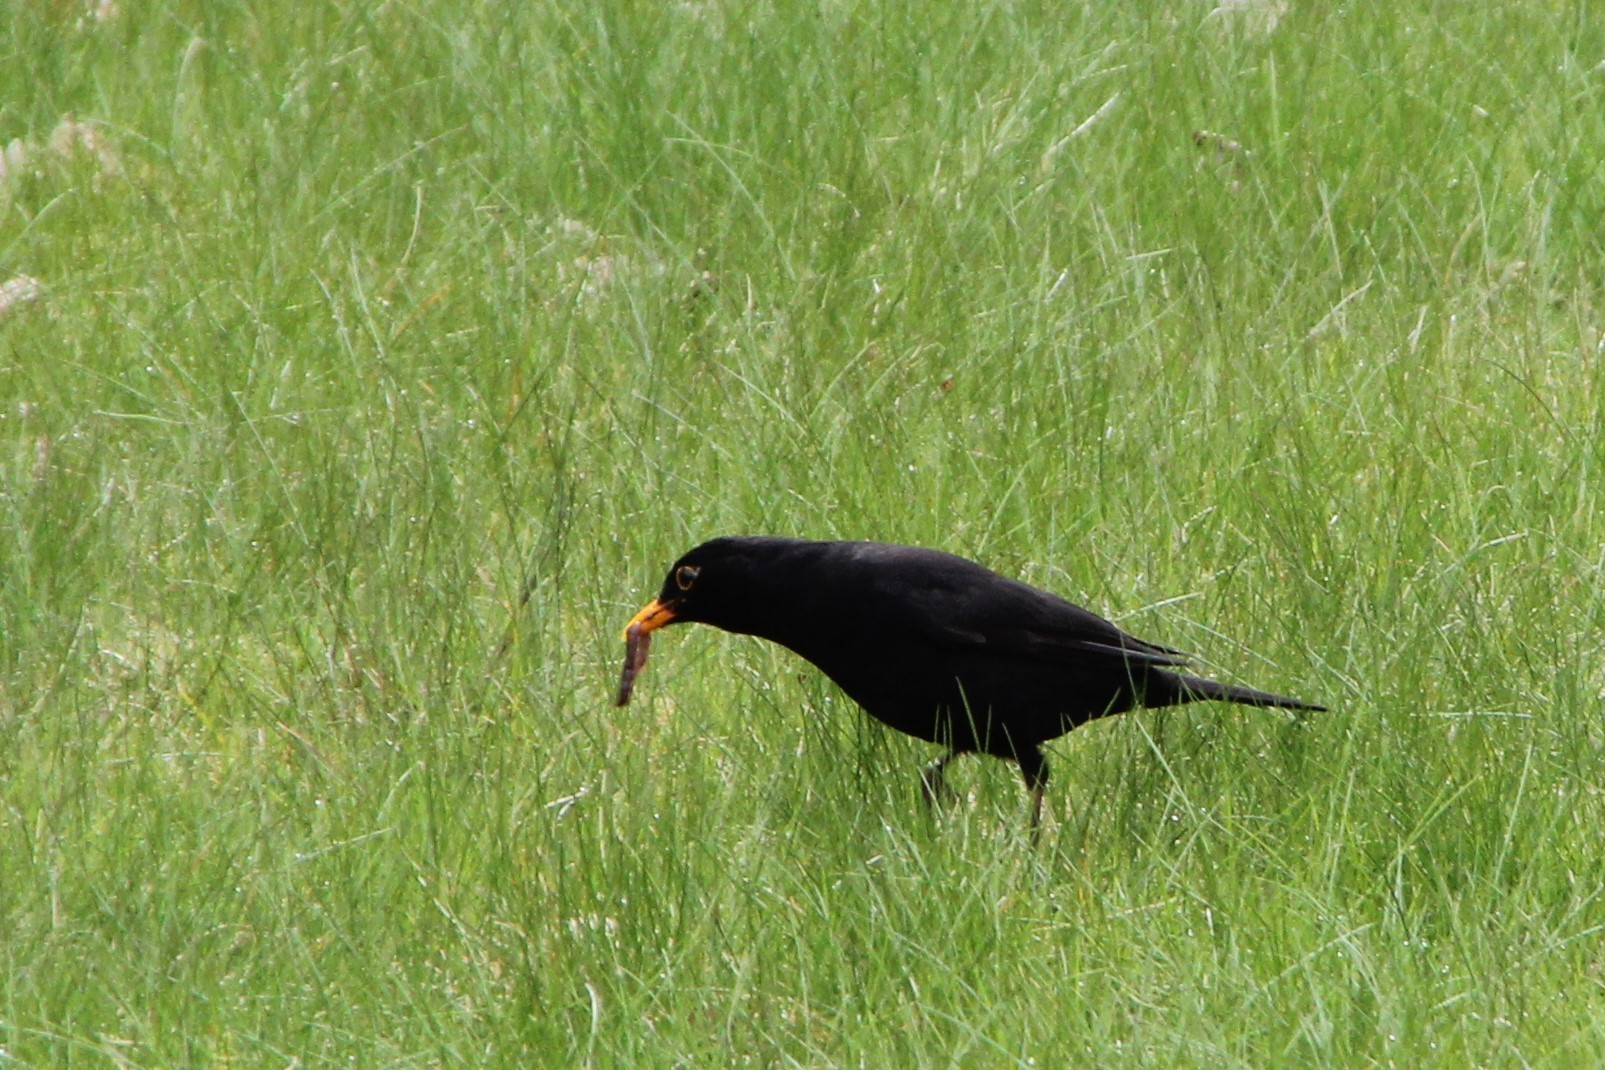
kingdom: Animalia
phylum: Chordata
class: Aves
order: Passeriformes
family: Turdidae
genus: Turdus
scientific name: Turdus merula
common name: Common blackbird
